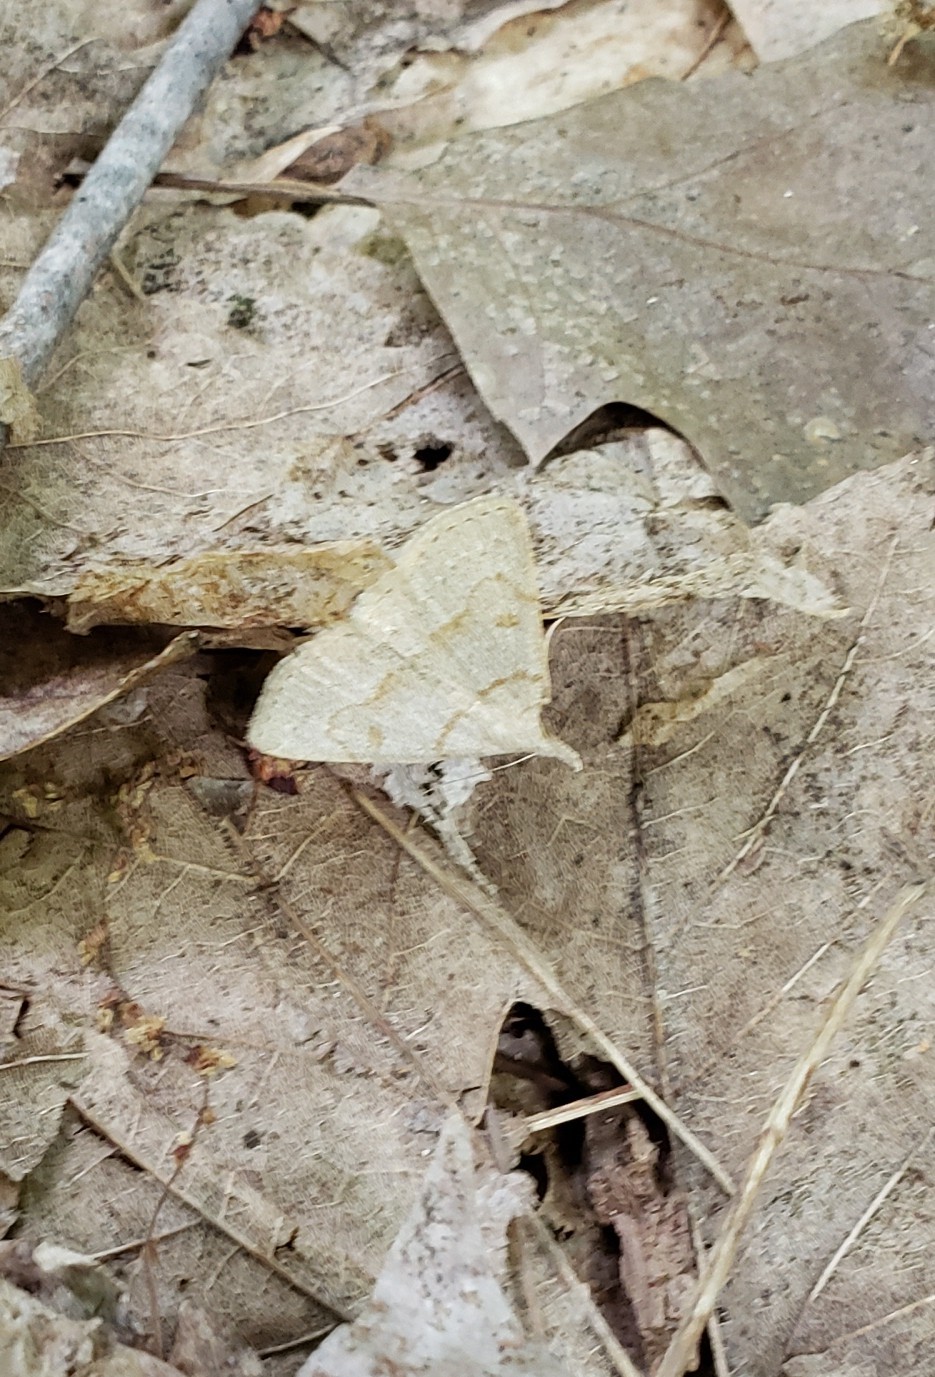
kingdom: Animalia
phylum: Arthropoda
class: Insecta
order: Lepidoptera
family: Erebidae
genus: Macrochilo
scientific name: Macrochilo morbidalis
